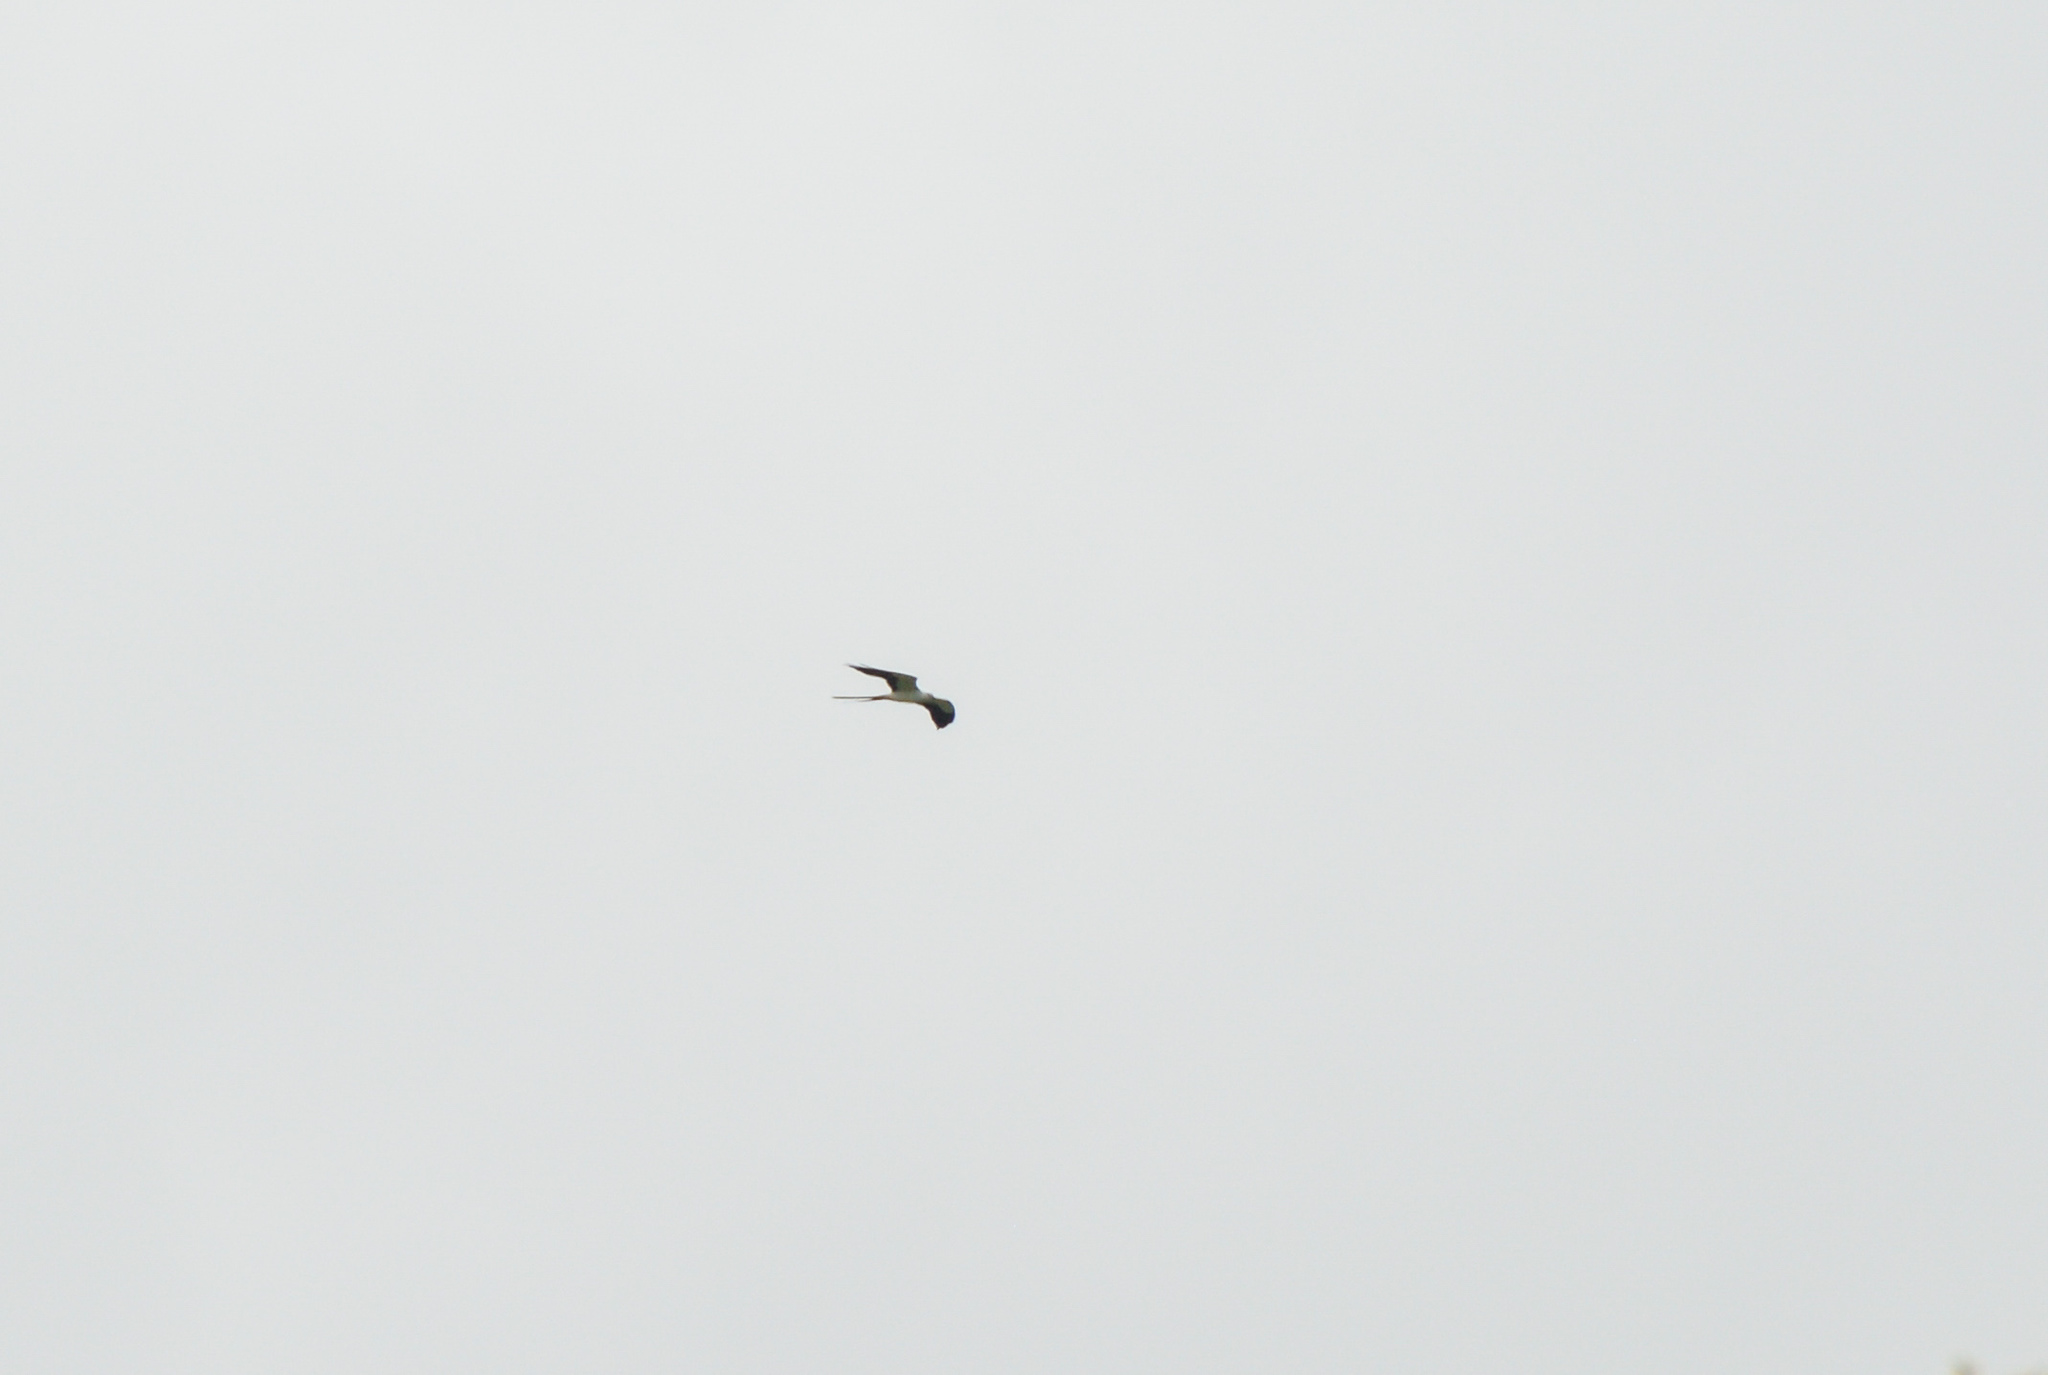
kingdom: Animalia
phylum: Chordata
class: Aves
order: Accipitriformes
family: Accipitridae
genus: Elanoides
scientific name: Elanoides forficatus
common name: Swallow-tailed kite
